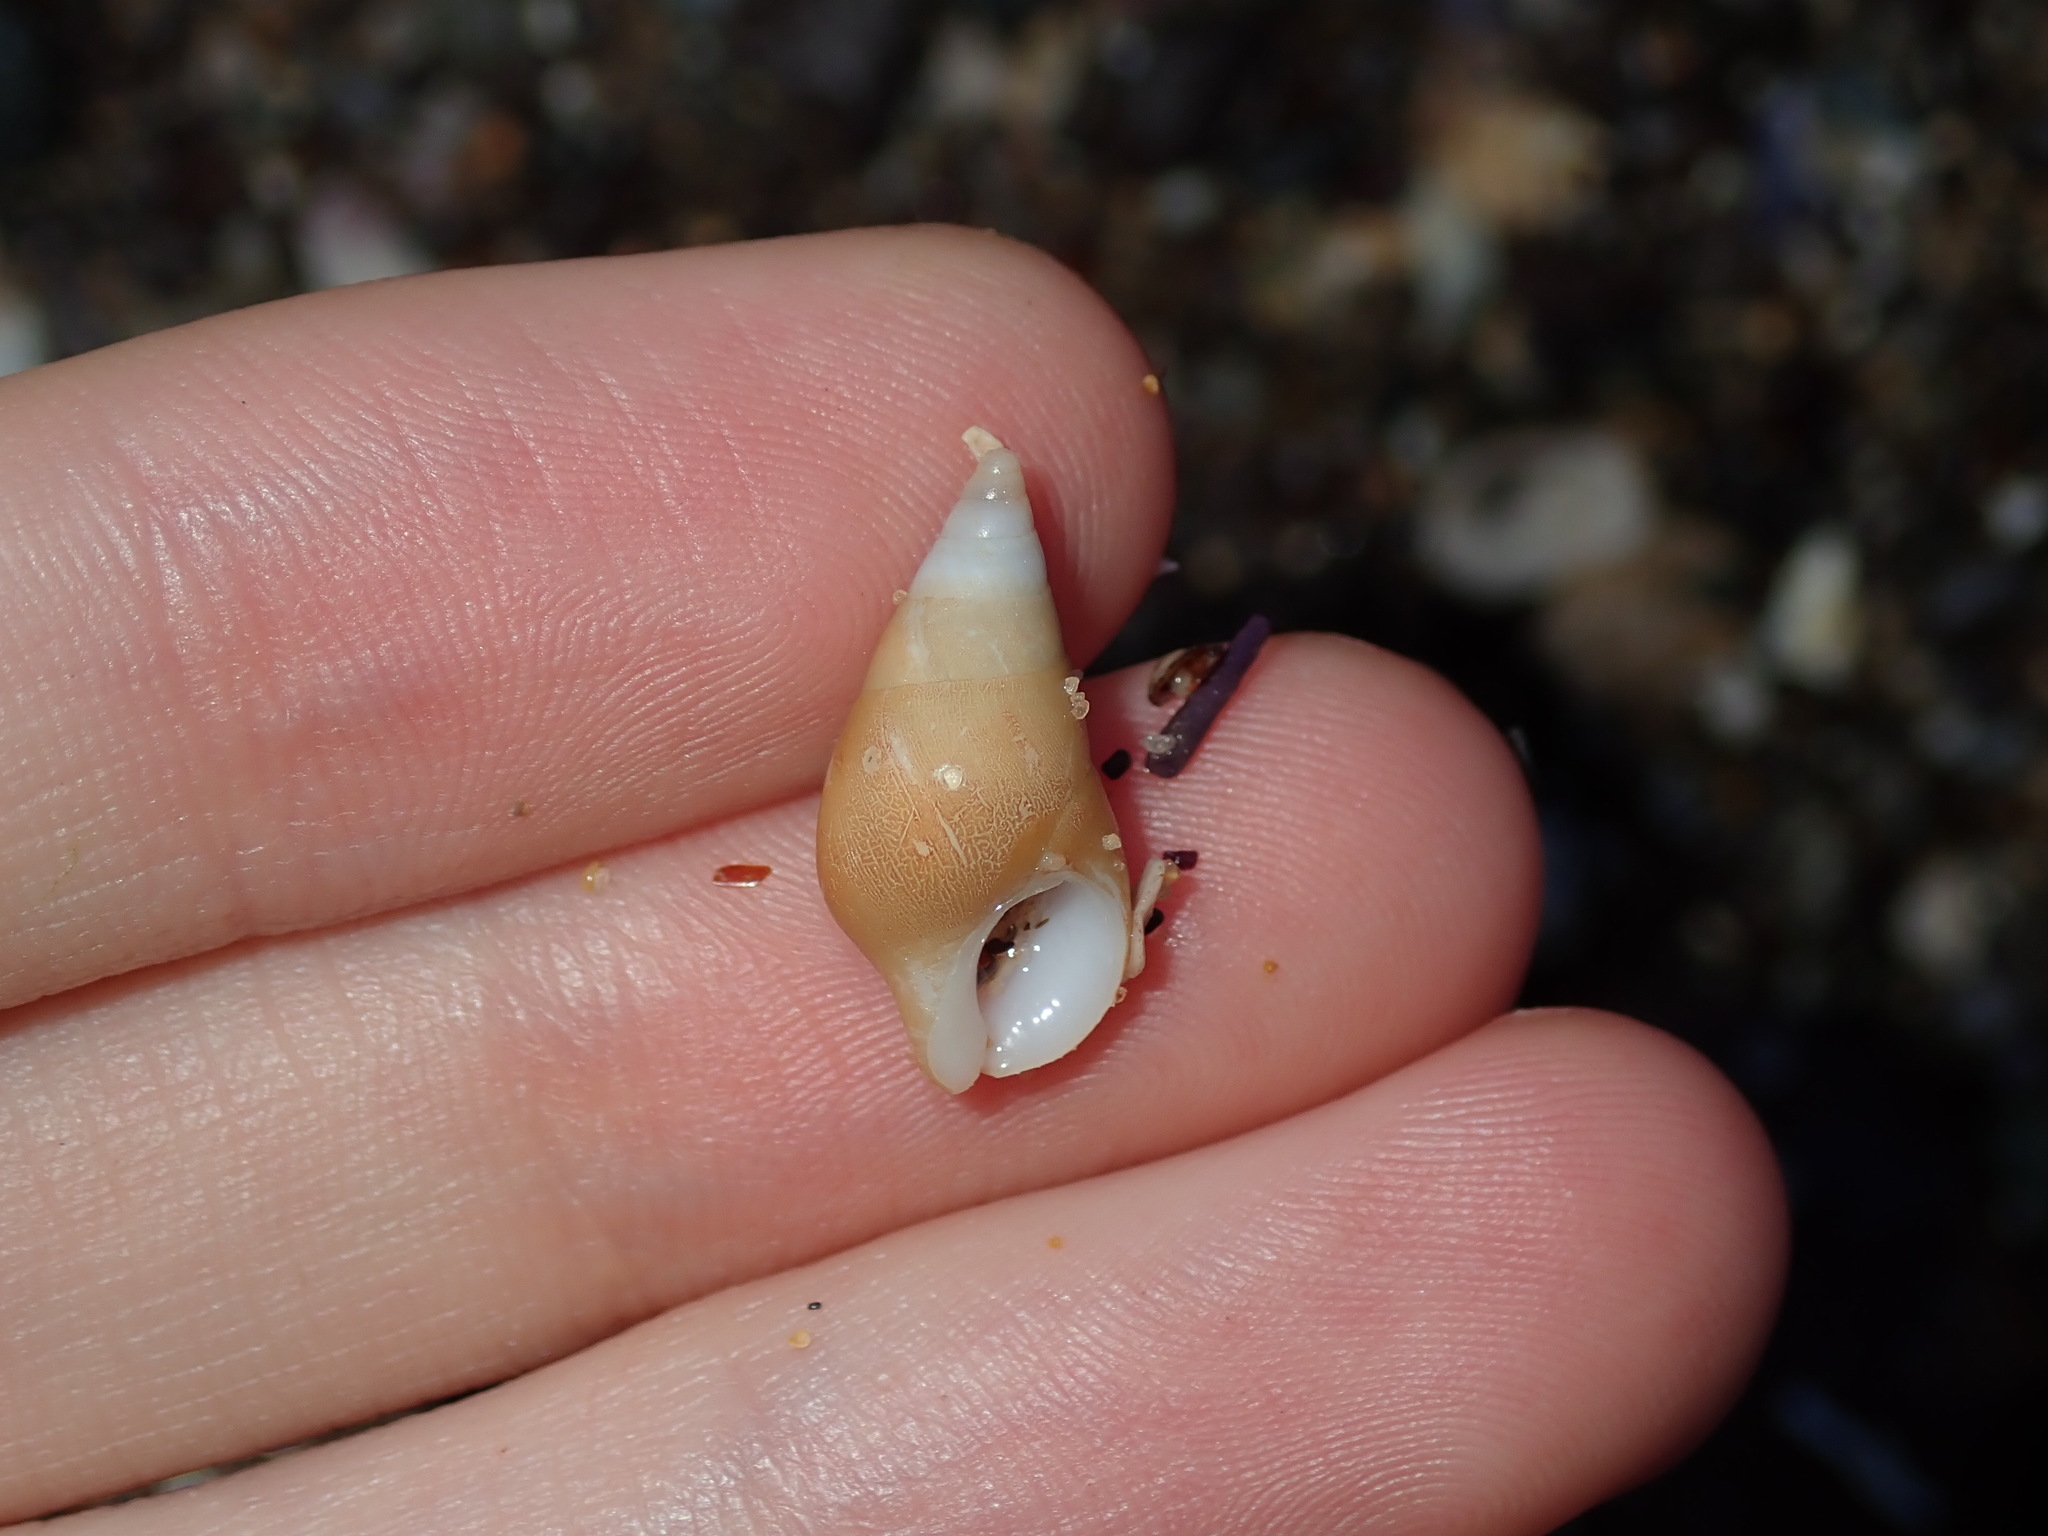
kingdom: Animalia
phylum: Mollusca
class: Gastropoda
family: Planaxidae
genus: Hinea
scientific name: Hinea brasiliana
